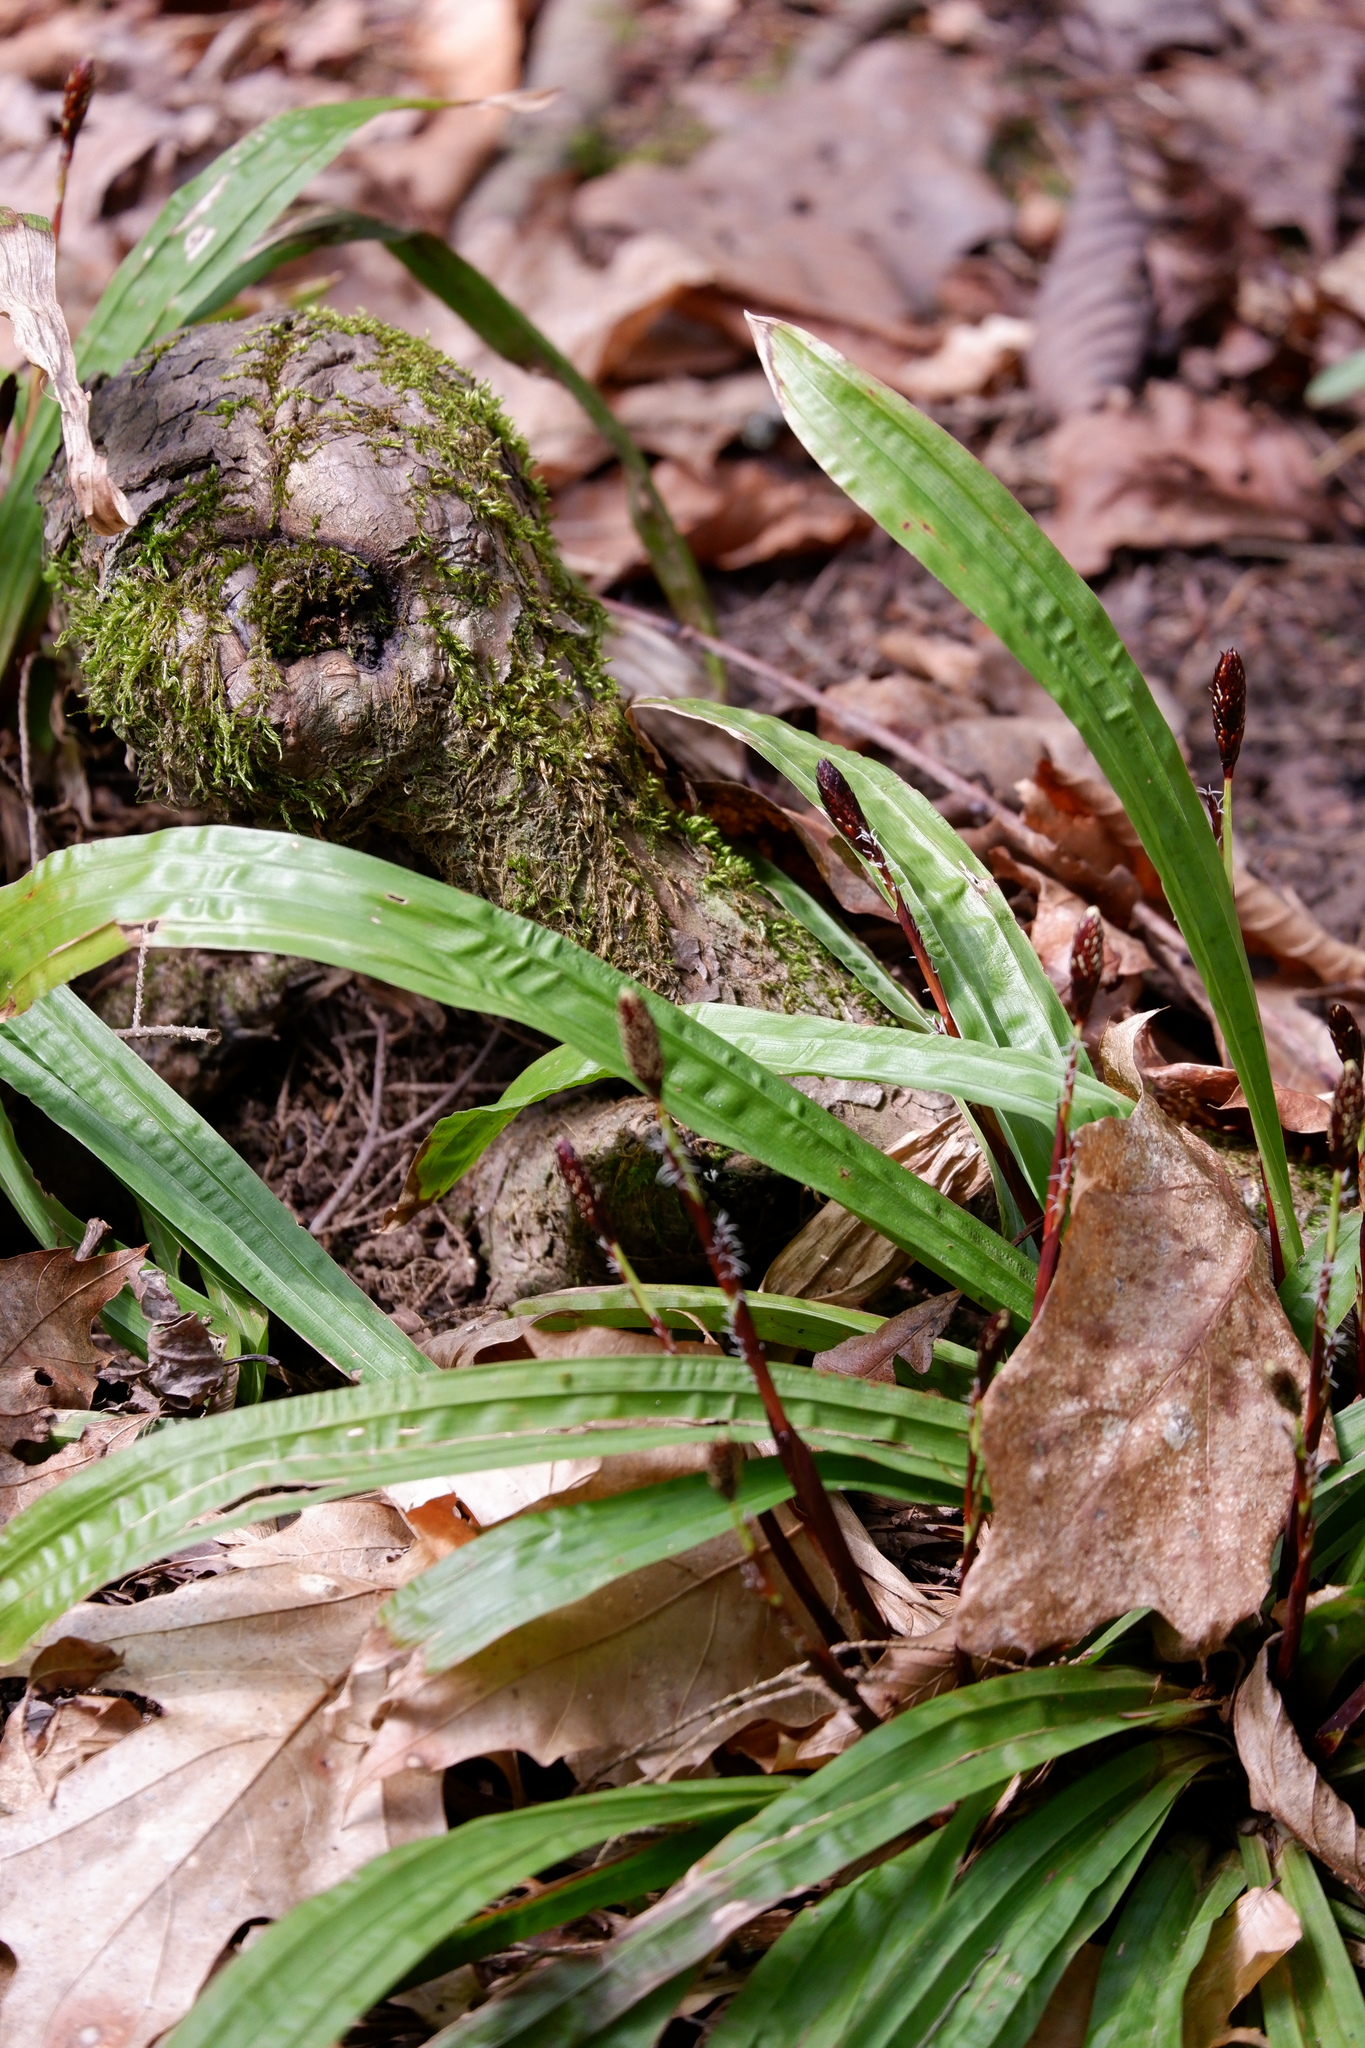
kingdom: Plantae
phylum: Tracheophyta
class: Liliopsida
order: Poales
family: Cyperaceae
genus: Carex
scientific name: Carex plantaginea
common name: Plantain-leaved sedge
